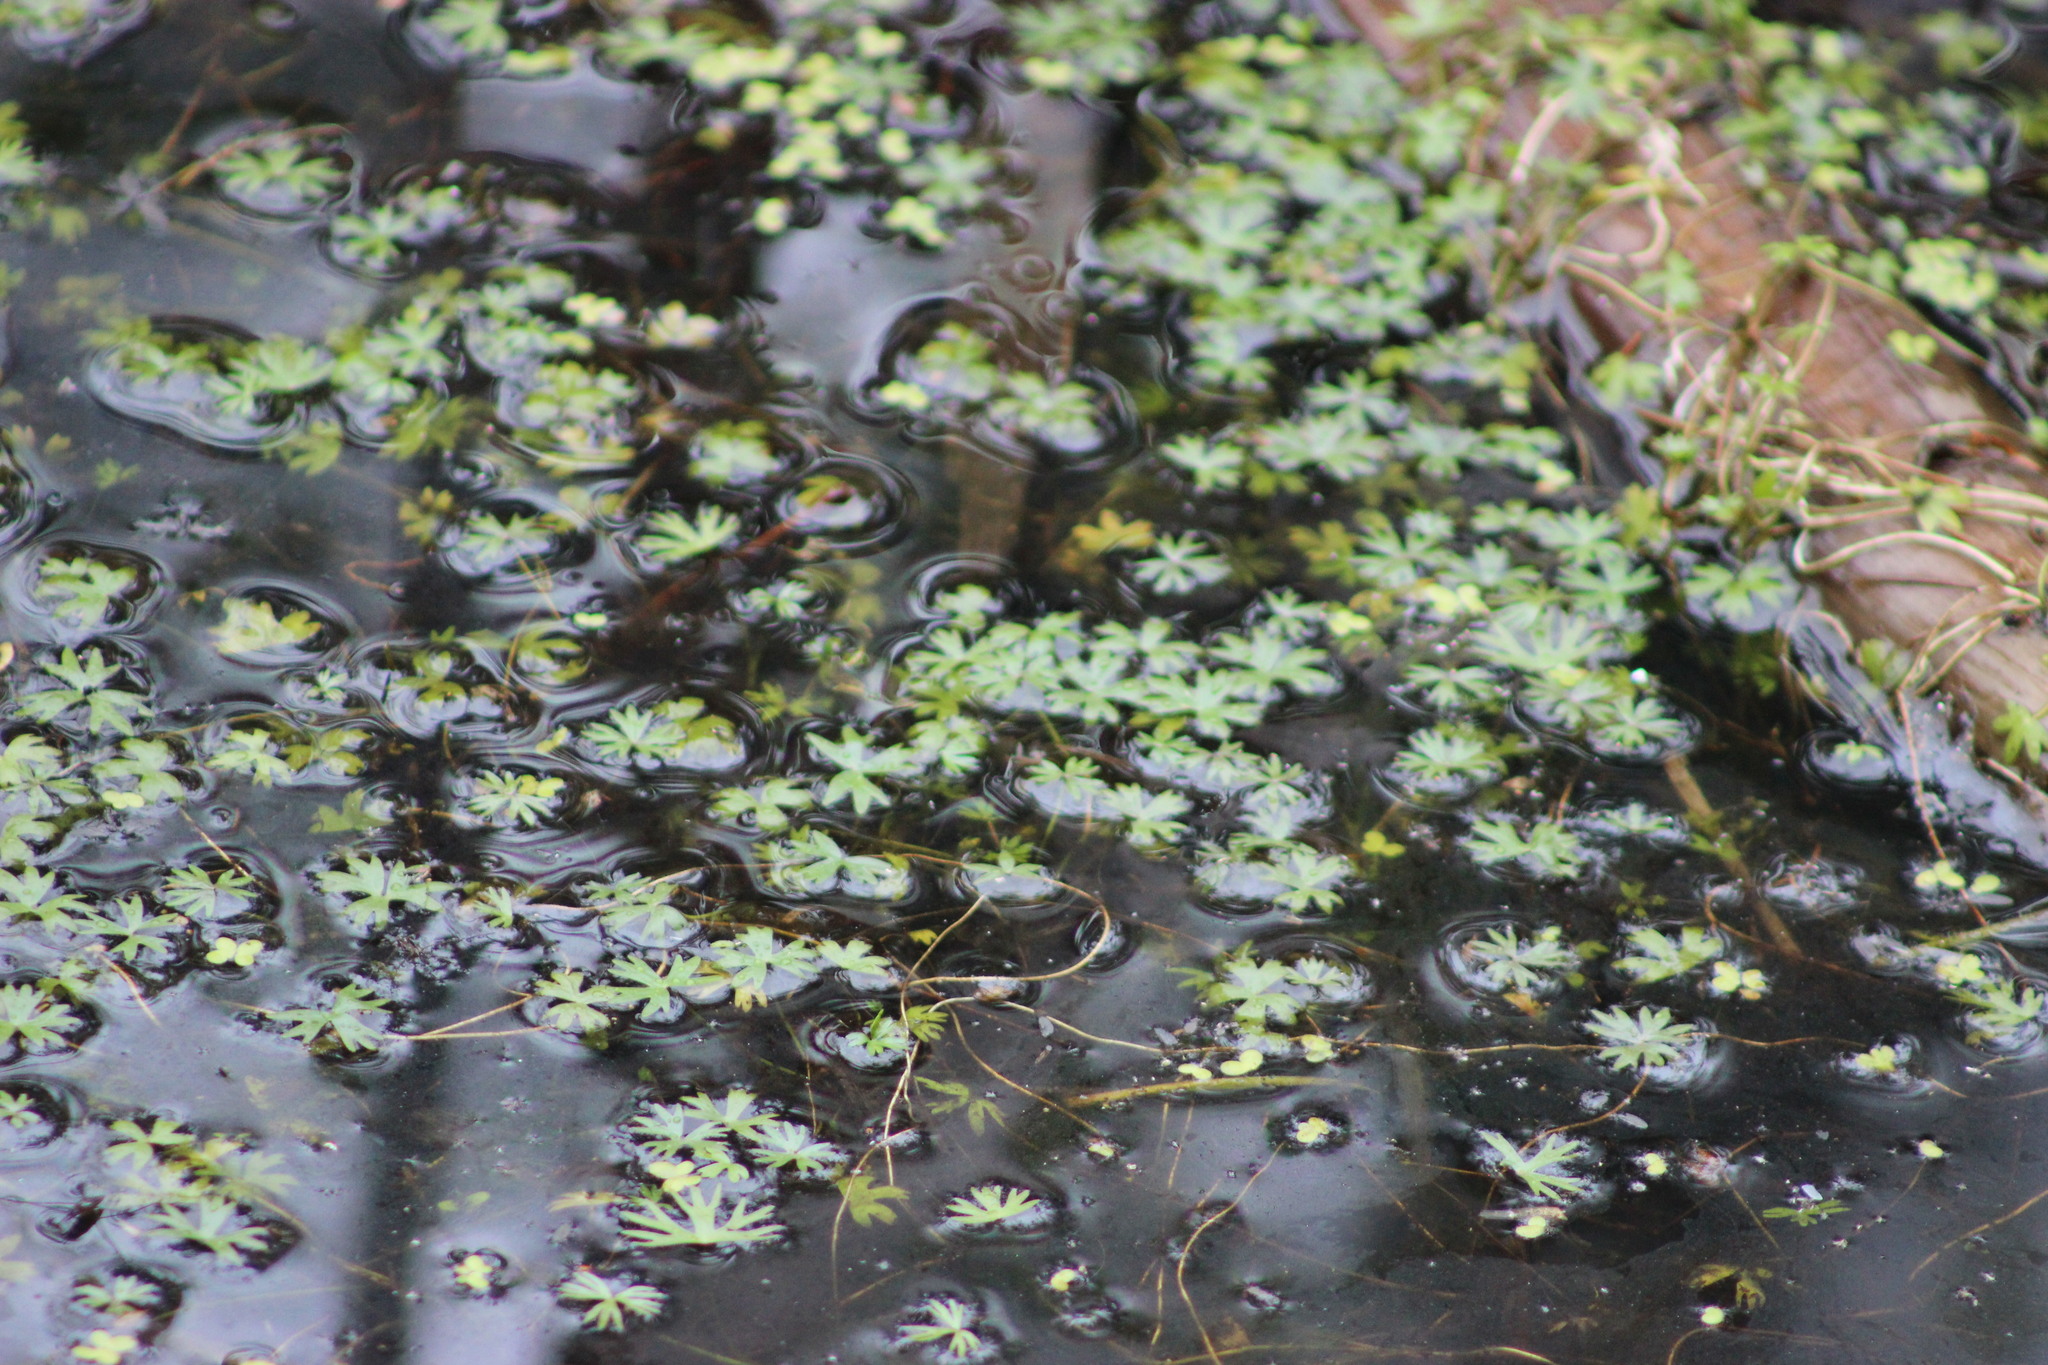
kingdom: Plantae
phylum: Tracheophyta
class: Magnoliopsida
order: Ranunculales
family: Ranunculaceae
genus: Ranunculus
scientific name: Ranunculus gmelinii
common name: Gmelin's buttercup
